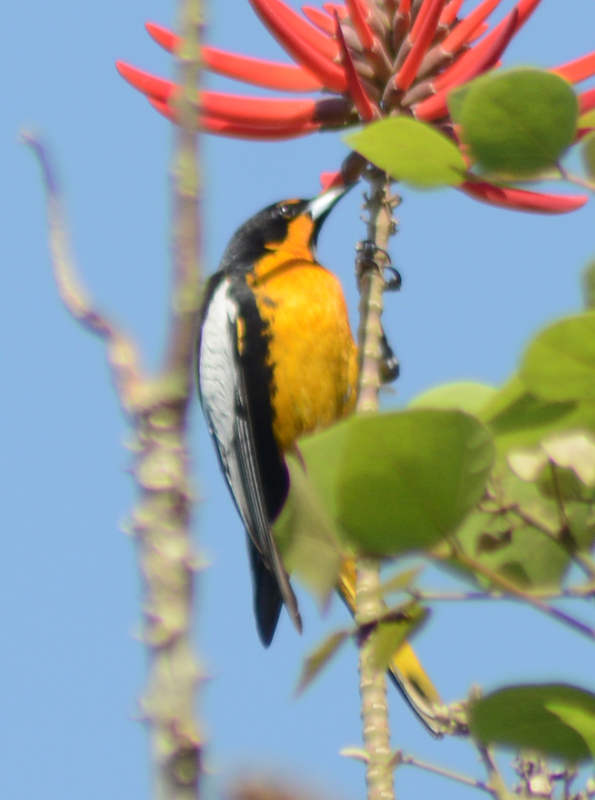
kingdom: Animalia
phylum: Chordata
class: Aves
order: Passeriformes
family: Icteridae
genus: Icterus
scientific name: Icterus abeillei
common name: Black-backed oriole
